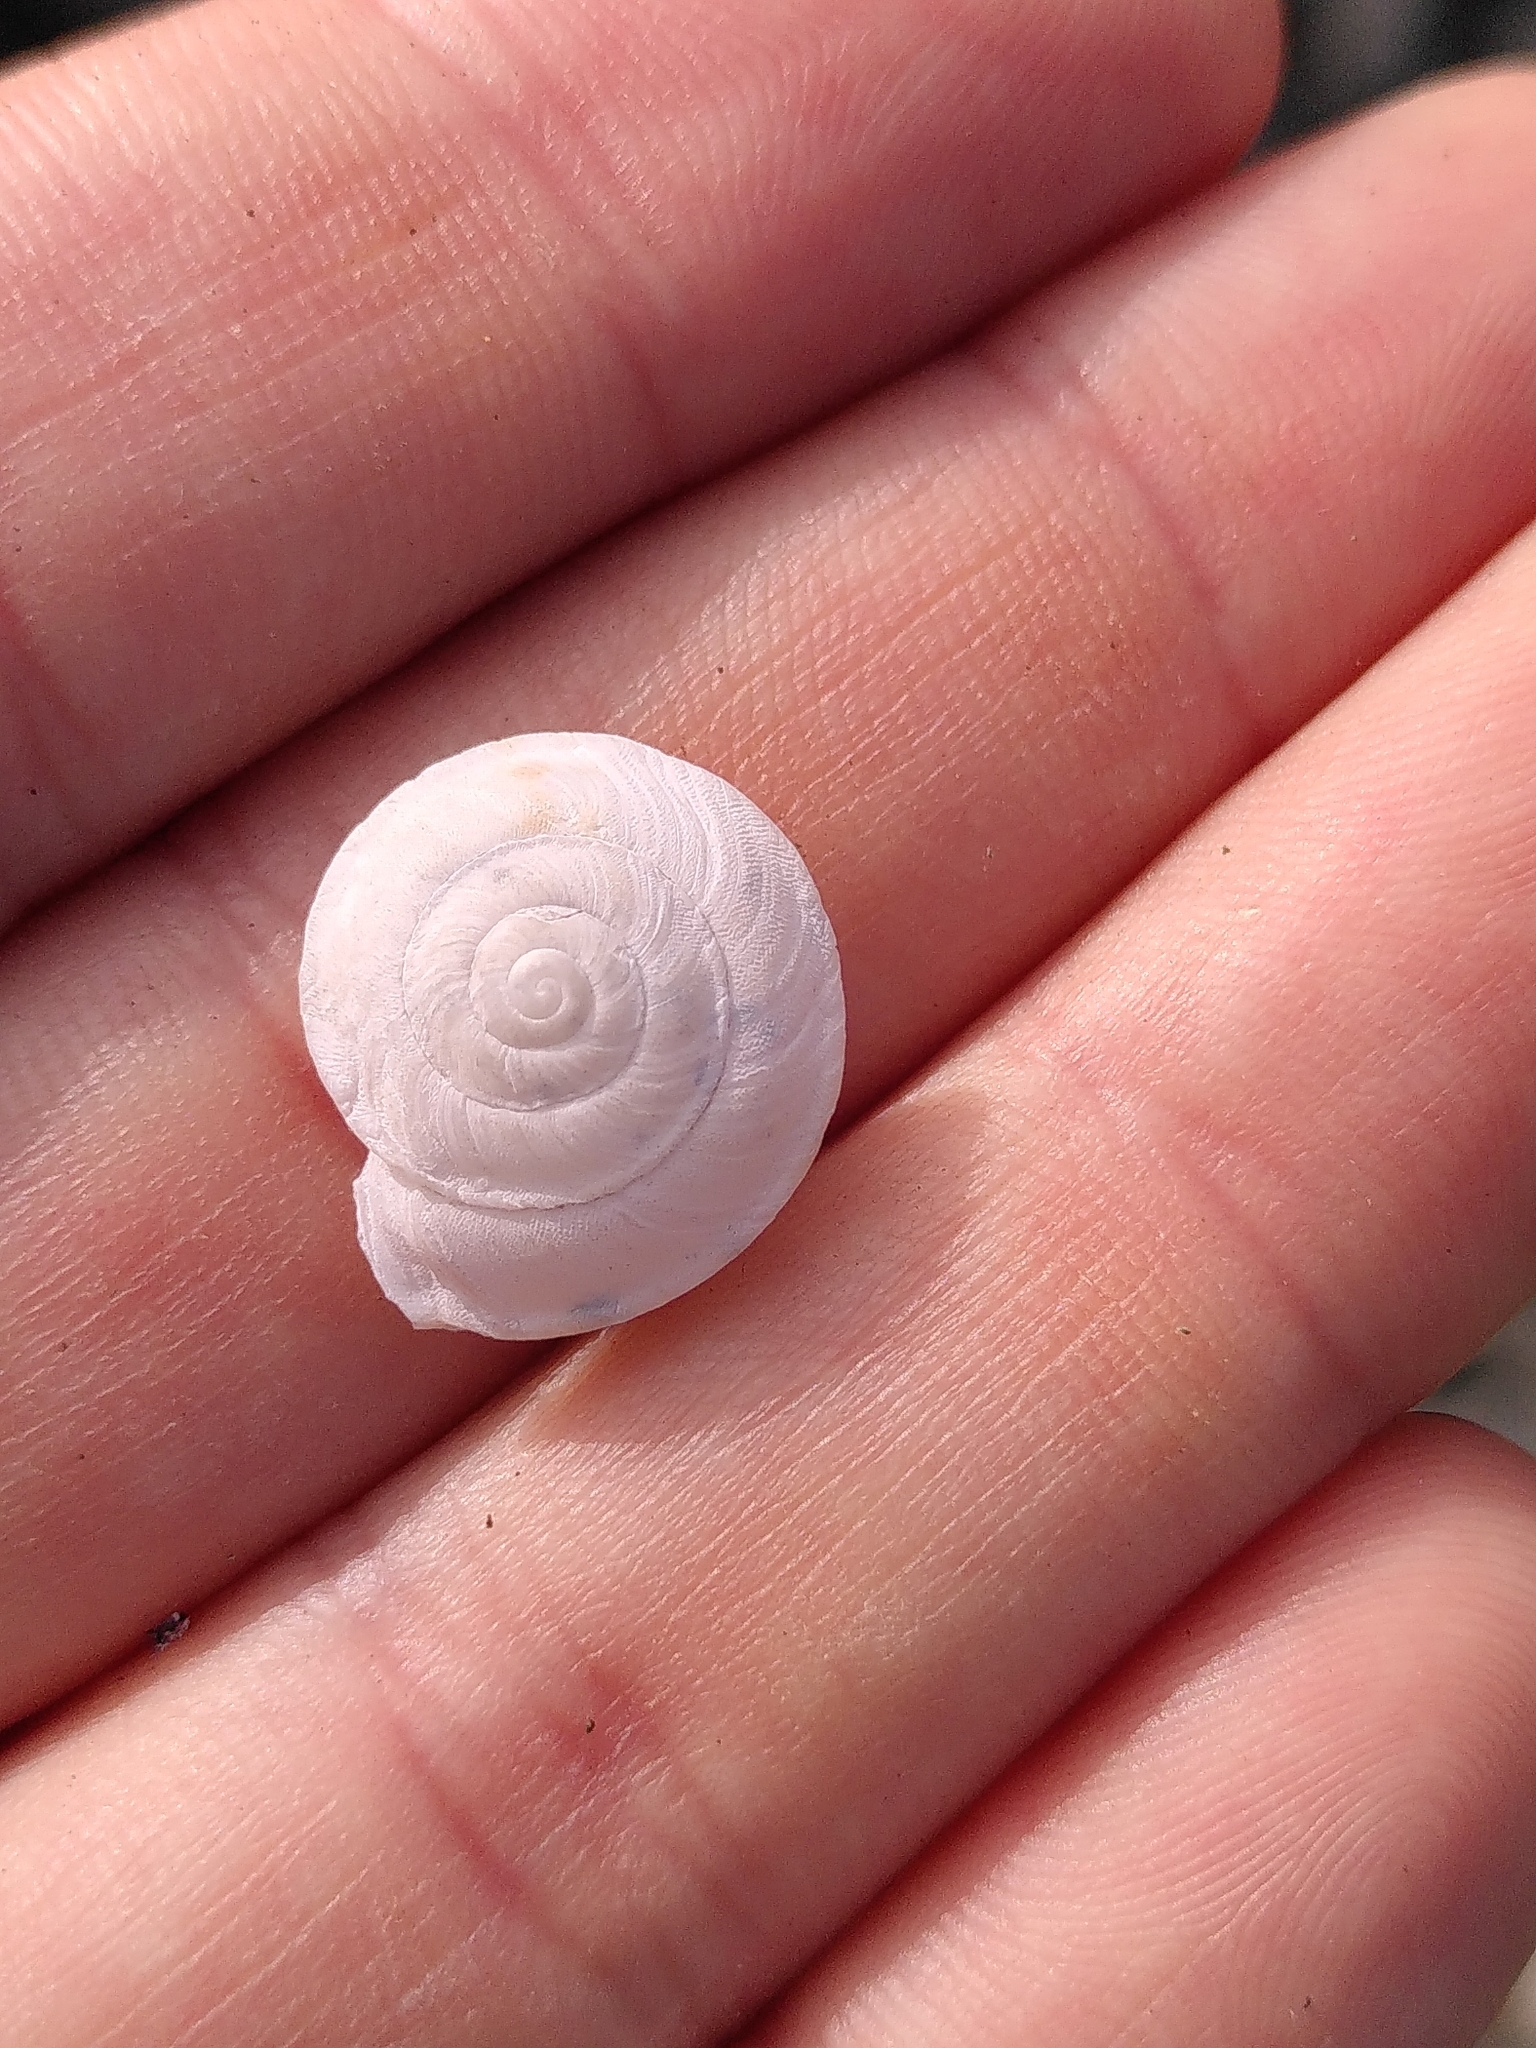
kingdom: Animalia
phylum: Mollusca
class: Gastropoda
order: Stylommatophora
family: Helicidae
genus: Helicigona
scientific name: Helicigona lapicida
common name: Lapidary snail
